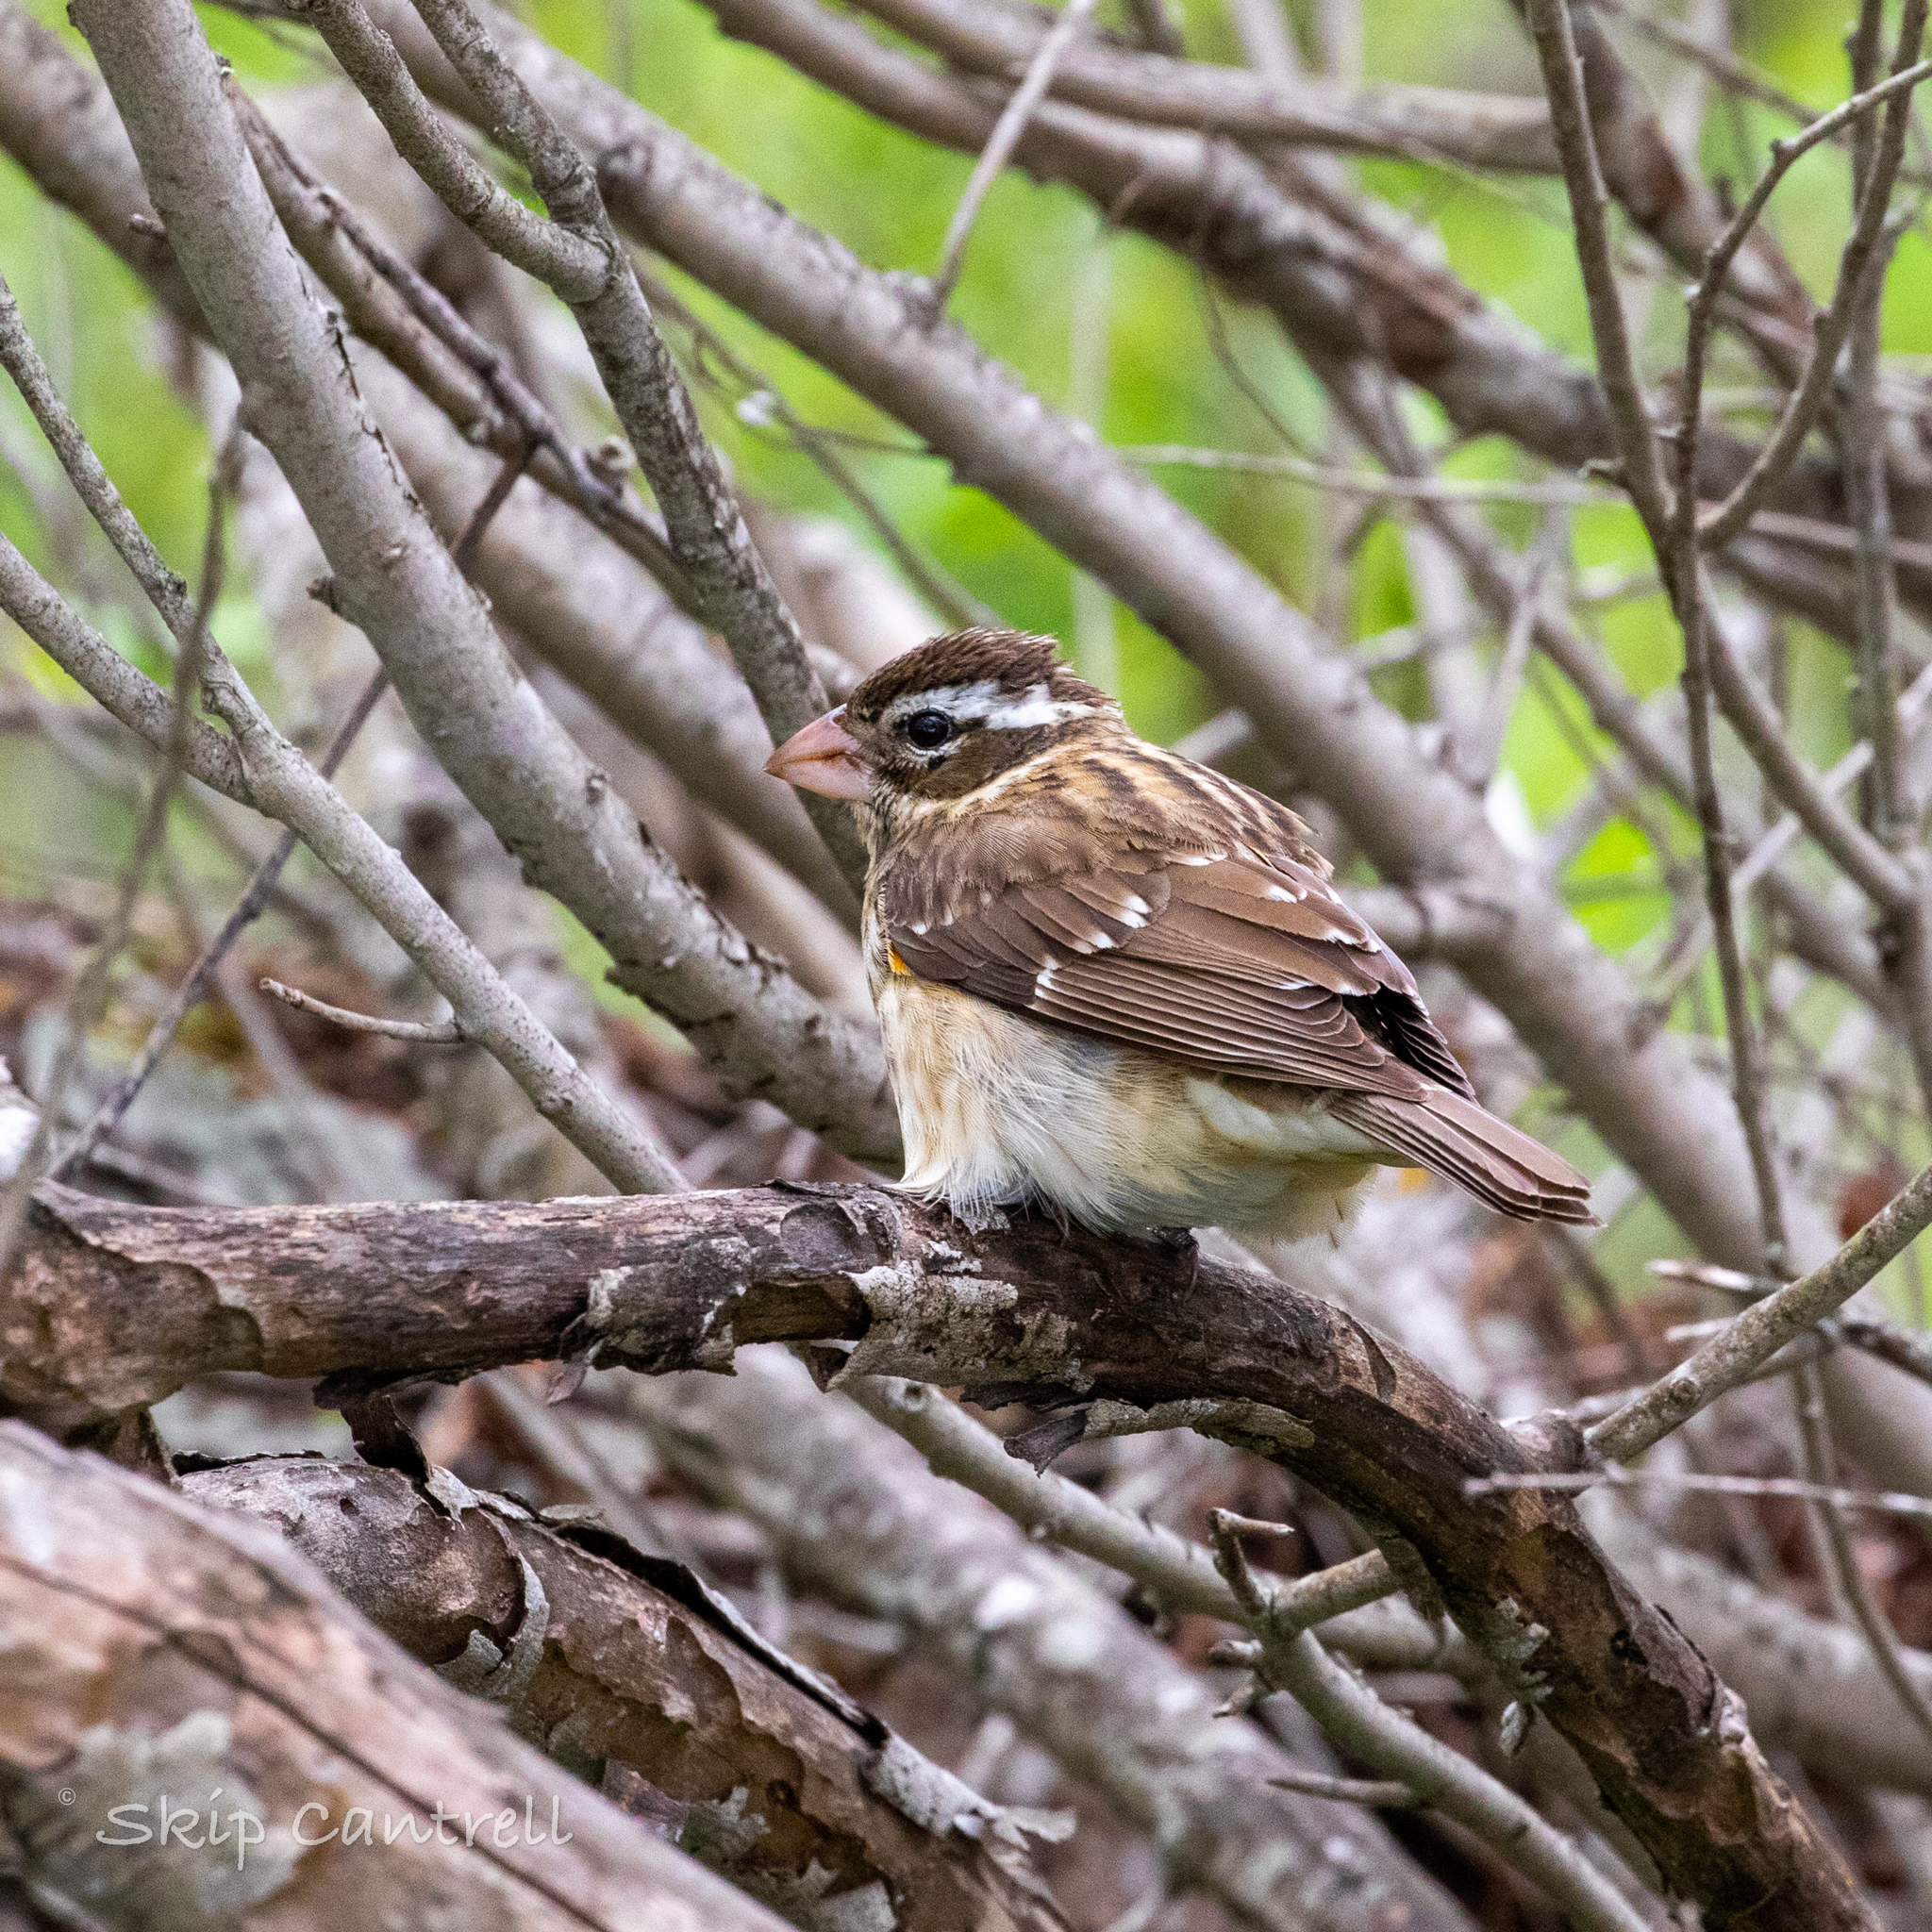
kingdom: Animalia
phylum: Chordata
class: Aves
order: Passeriformes
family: Cardinalidae
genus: Pheucticus
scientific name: Pheucticus ludovicianus
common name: Rose-breasted grosbeak
